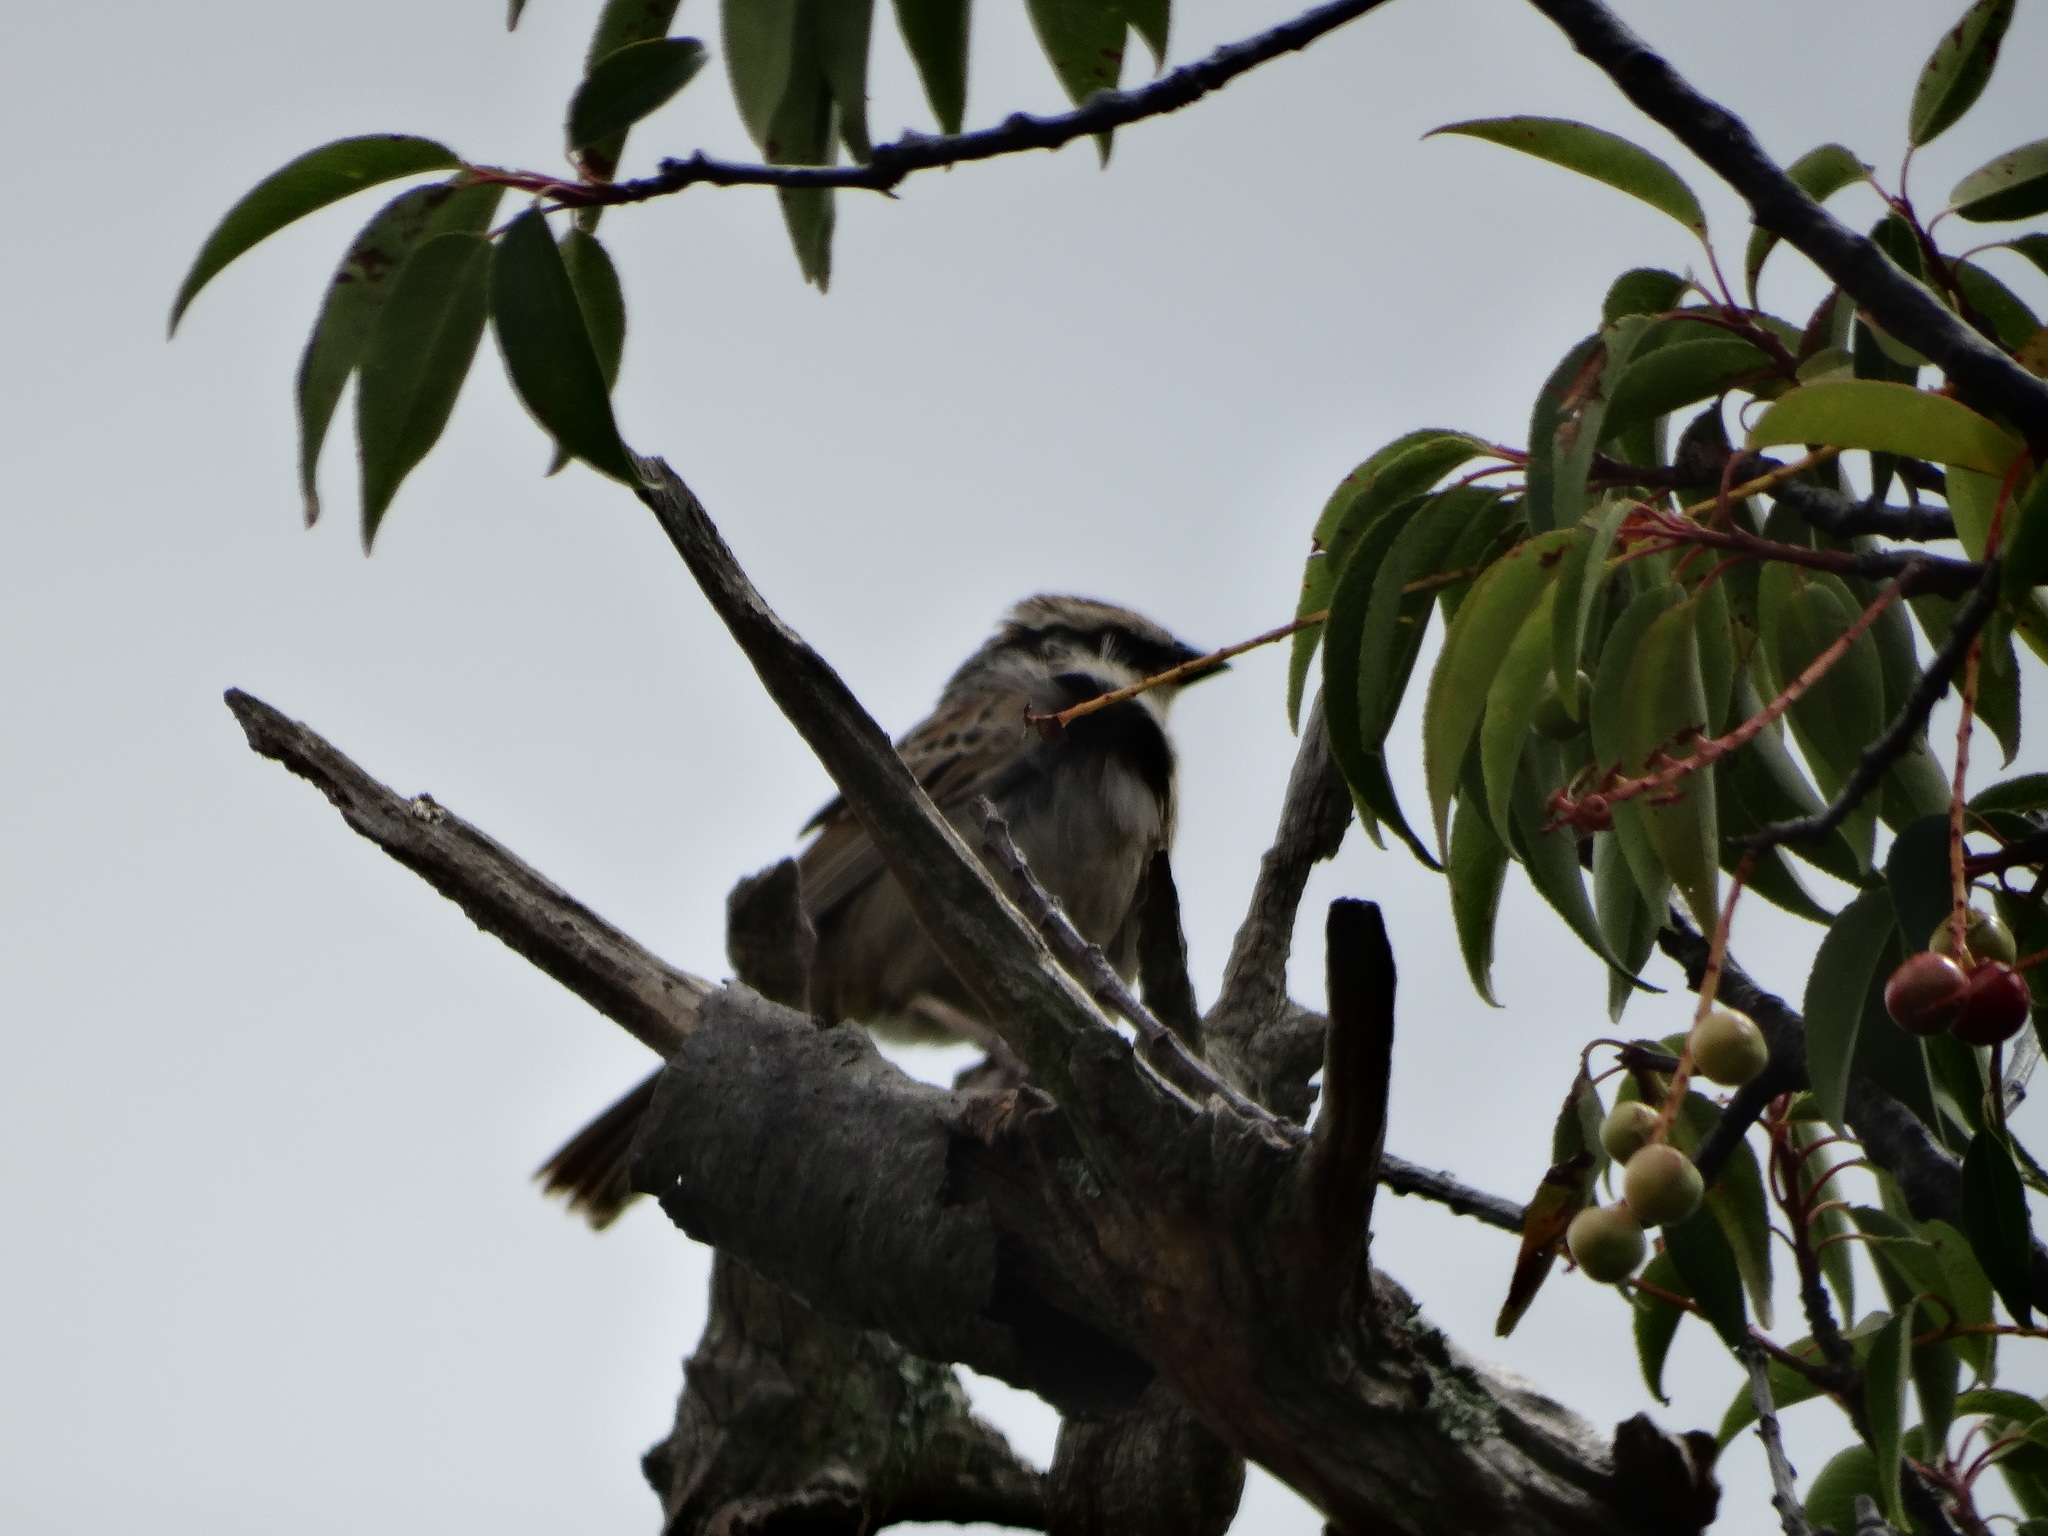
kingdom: Animalia
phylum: Chordata
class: Aves
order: Passeriformes
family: Passerellidae
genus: Oriturus
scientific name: Oriturus superciliosus
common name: Striped sparrow
